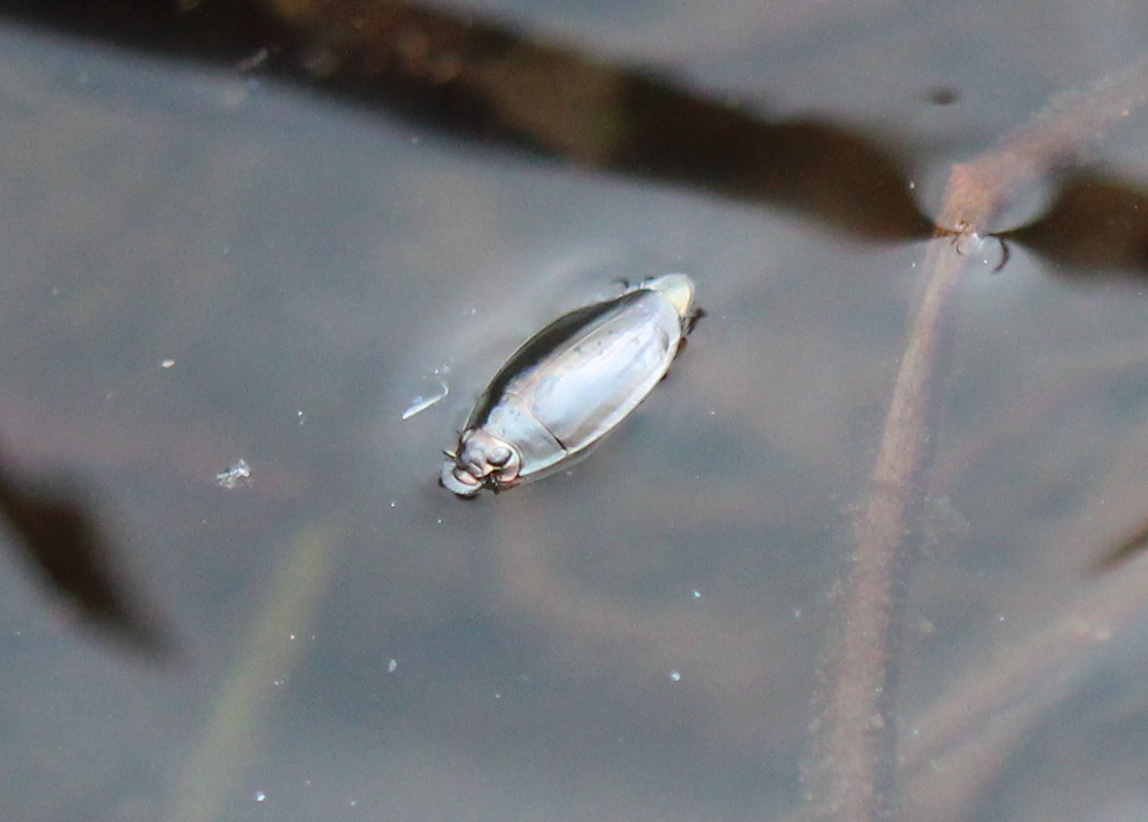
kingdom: Animalia
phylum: Arthropoda
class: Insecta
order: Coleoptera
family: Gyrinidae
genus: Dineutus
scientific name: Dineutus
